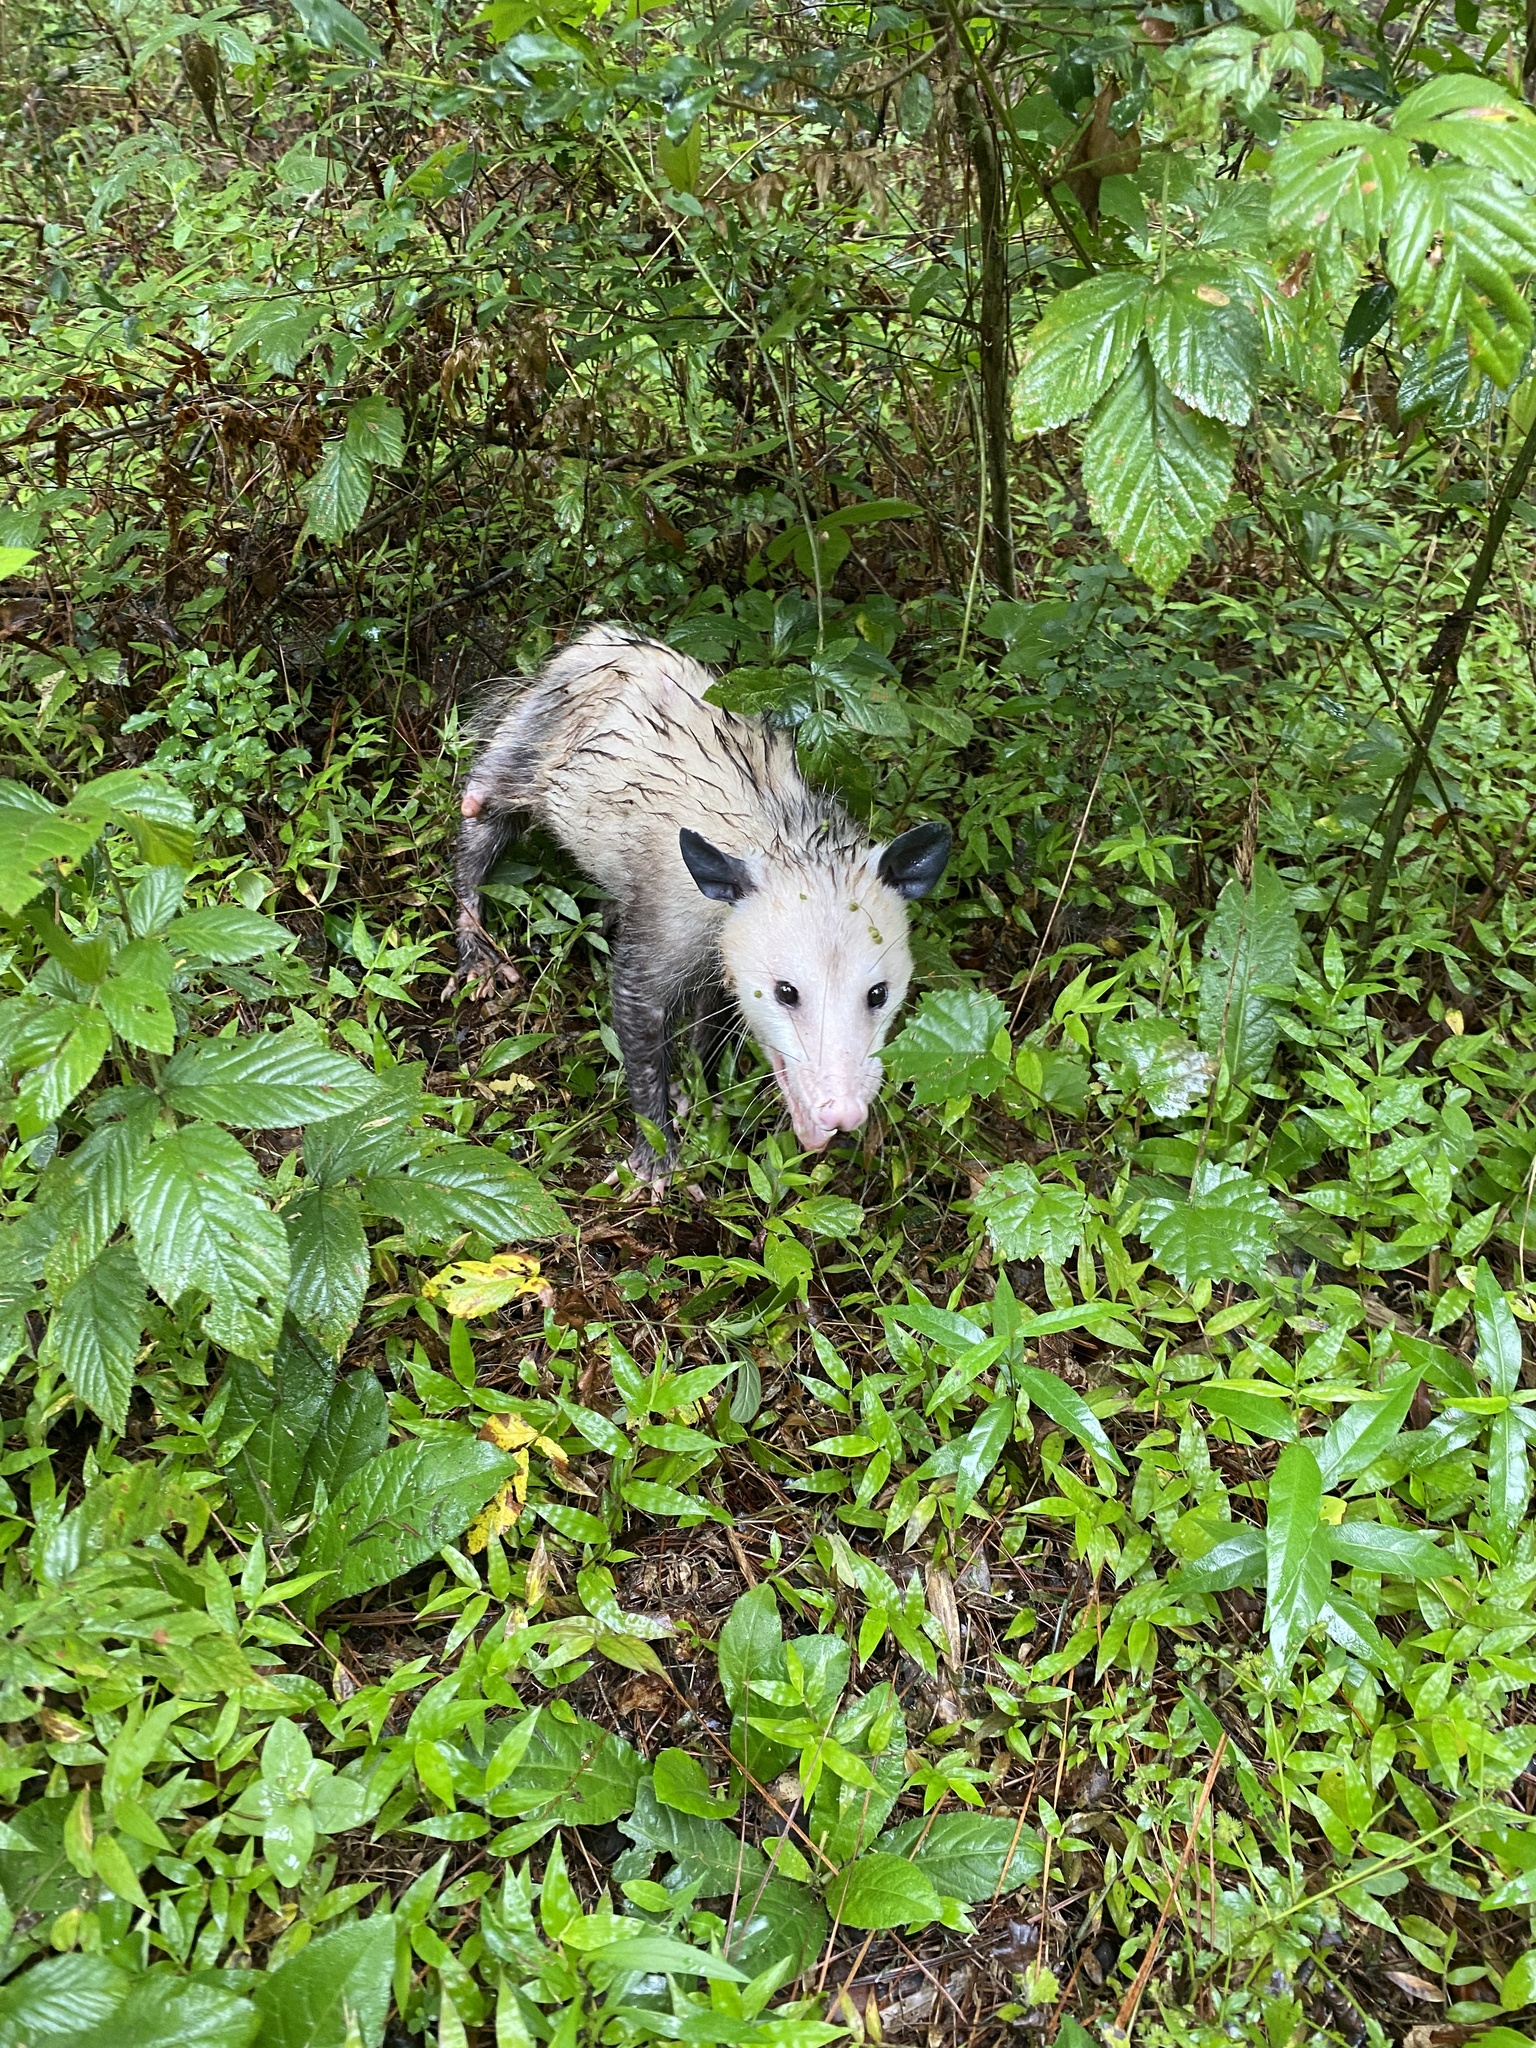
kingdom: Animalia
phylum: Chordata
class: Mammalia
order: Didelphimorphia
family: Didelphidae
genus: Didelphis
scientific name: Didelphis virginiana
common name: Virginia opossum
